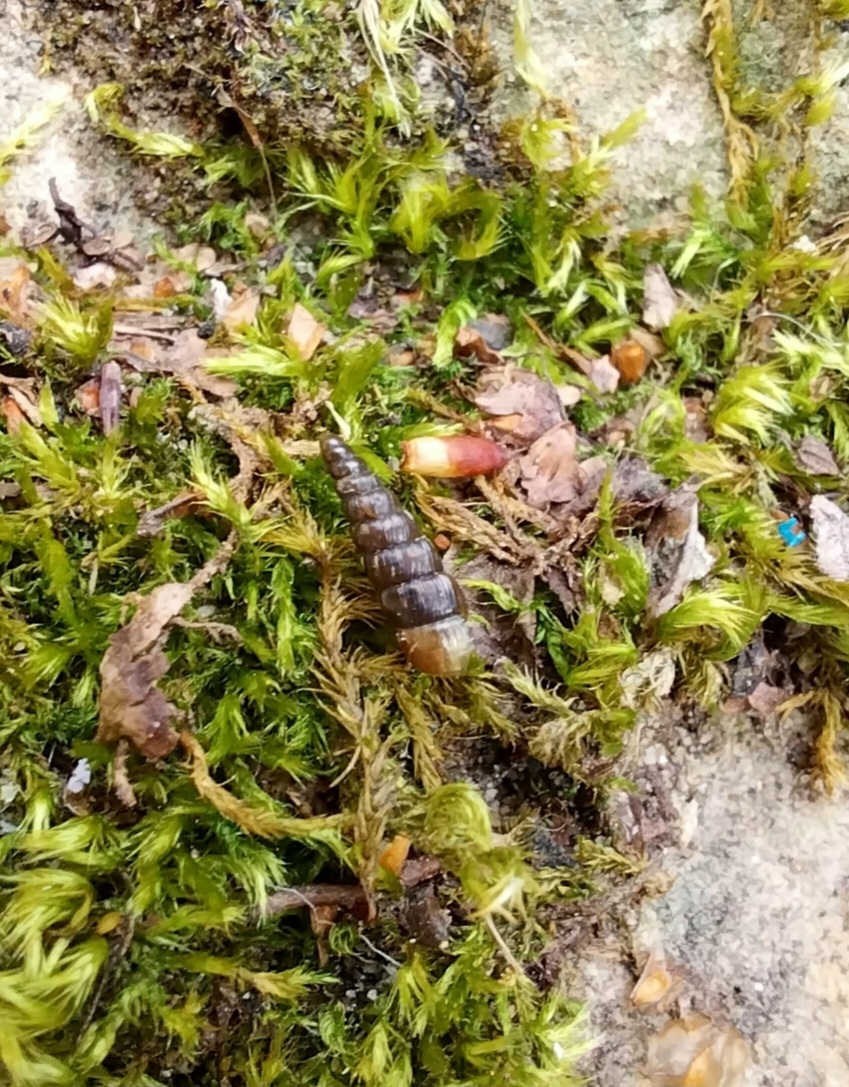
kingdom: Animalia
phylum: Mollusca
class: Gastropoda
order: Stylommatophora
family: Clausiliidae
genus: Balea
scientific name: Balea perversa
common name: Tree snail
